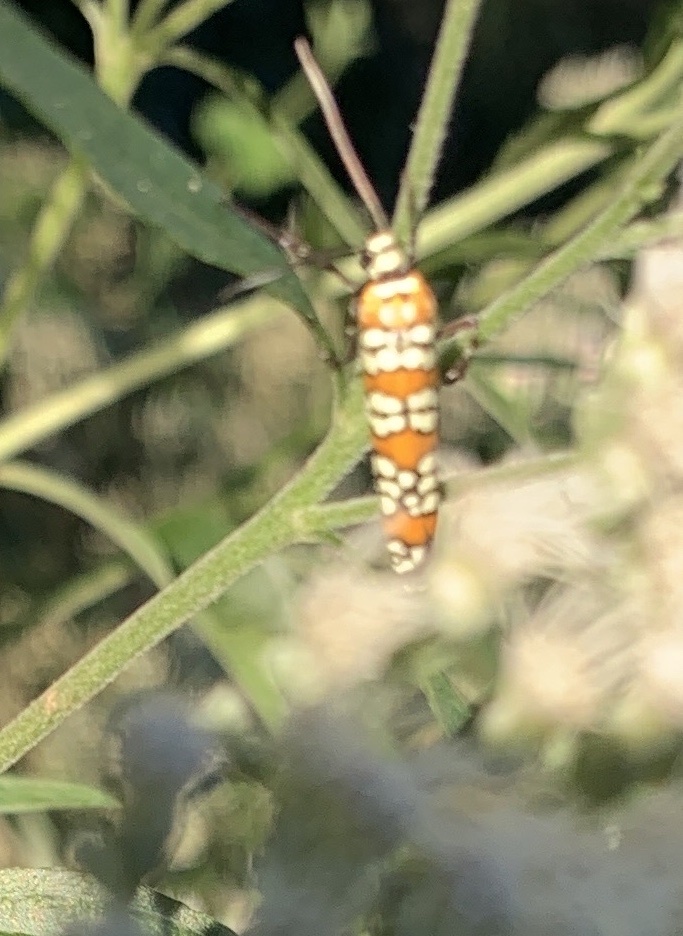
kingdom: Animalia
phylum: Arthropoda
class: Insecta
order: Lepidoptera
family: Attevidae
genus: Atteva
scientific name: Atteva punctella
